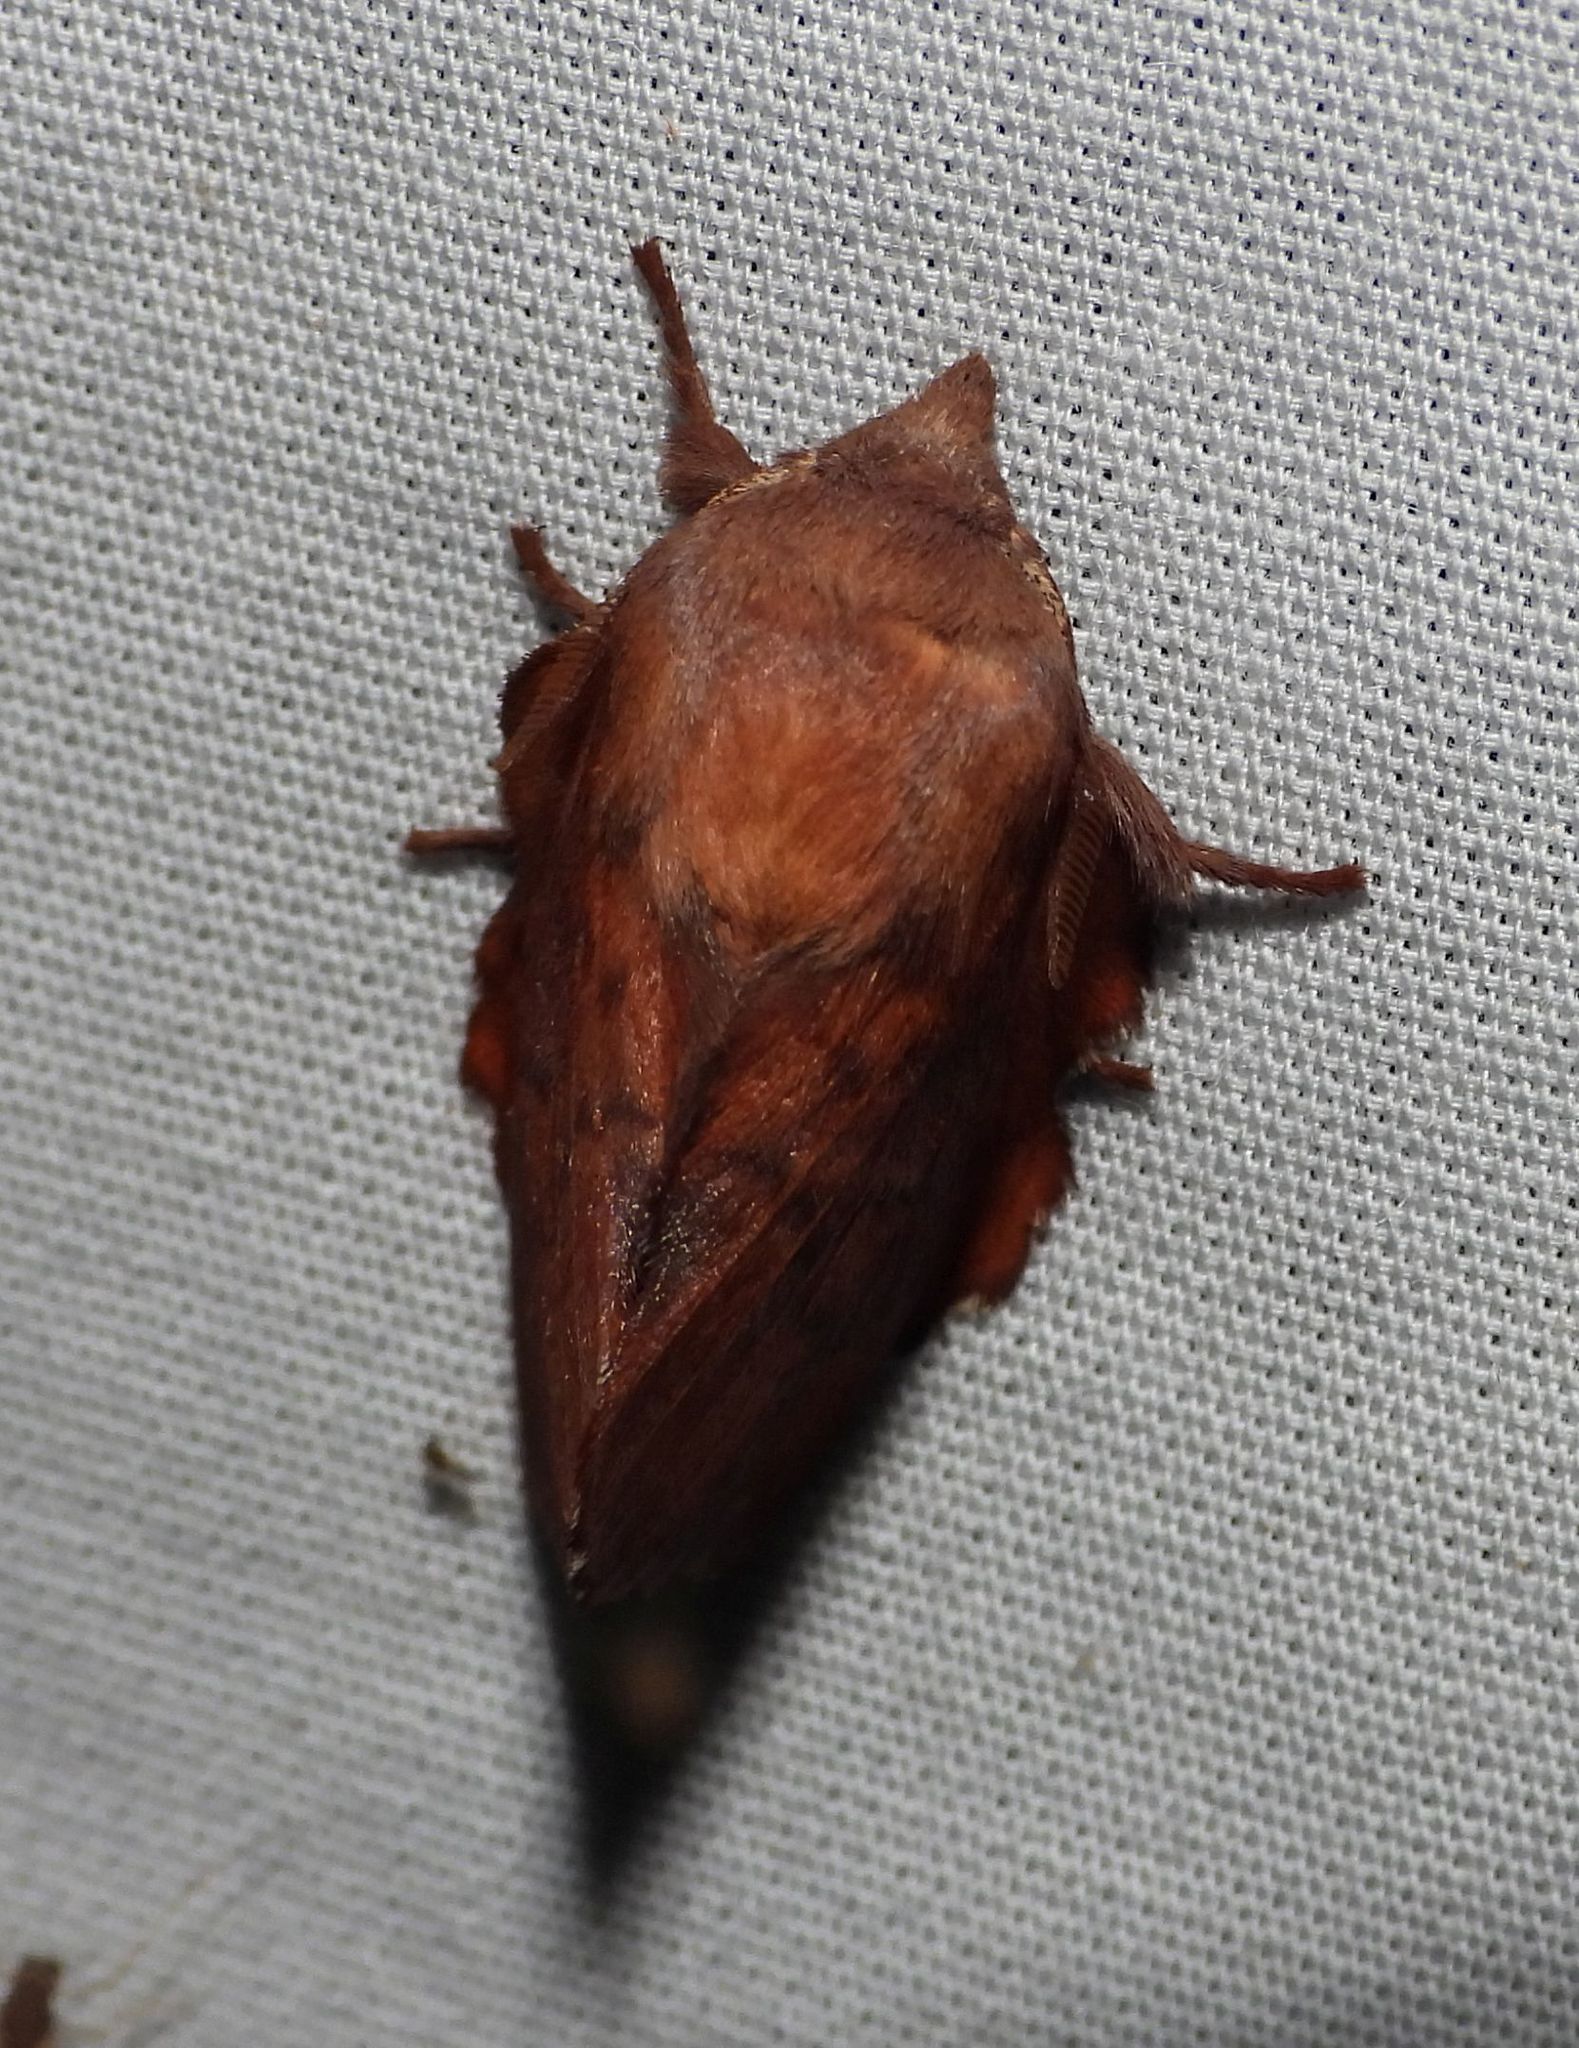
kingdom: Animalia
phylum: Arthropoda
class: Insecta
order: Lepidoptera
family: Lasiocampidae
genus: Phyllodesma
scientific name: Phyllodesma americana
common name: American lappet moth
